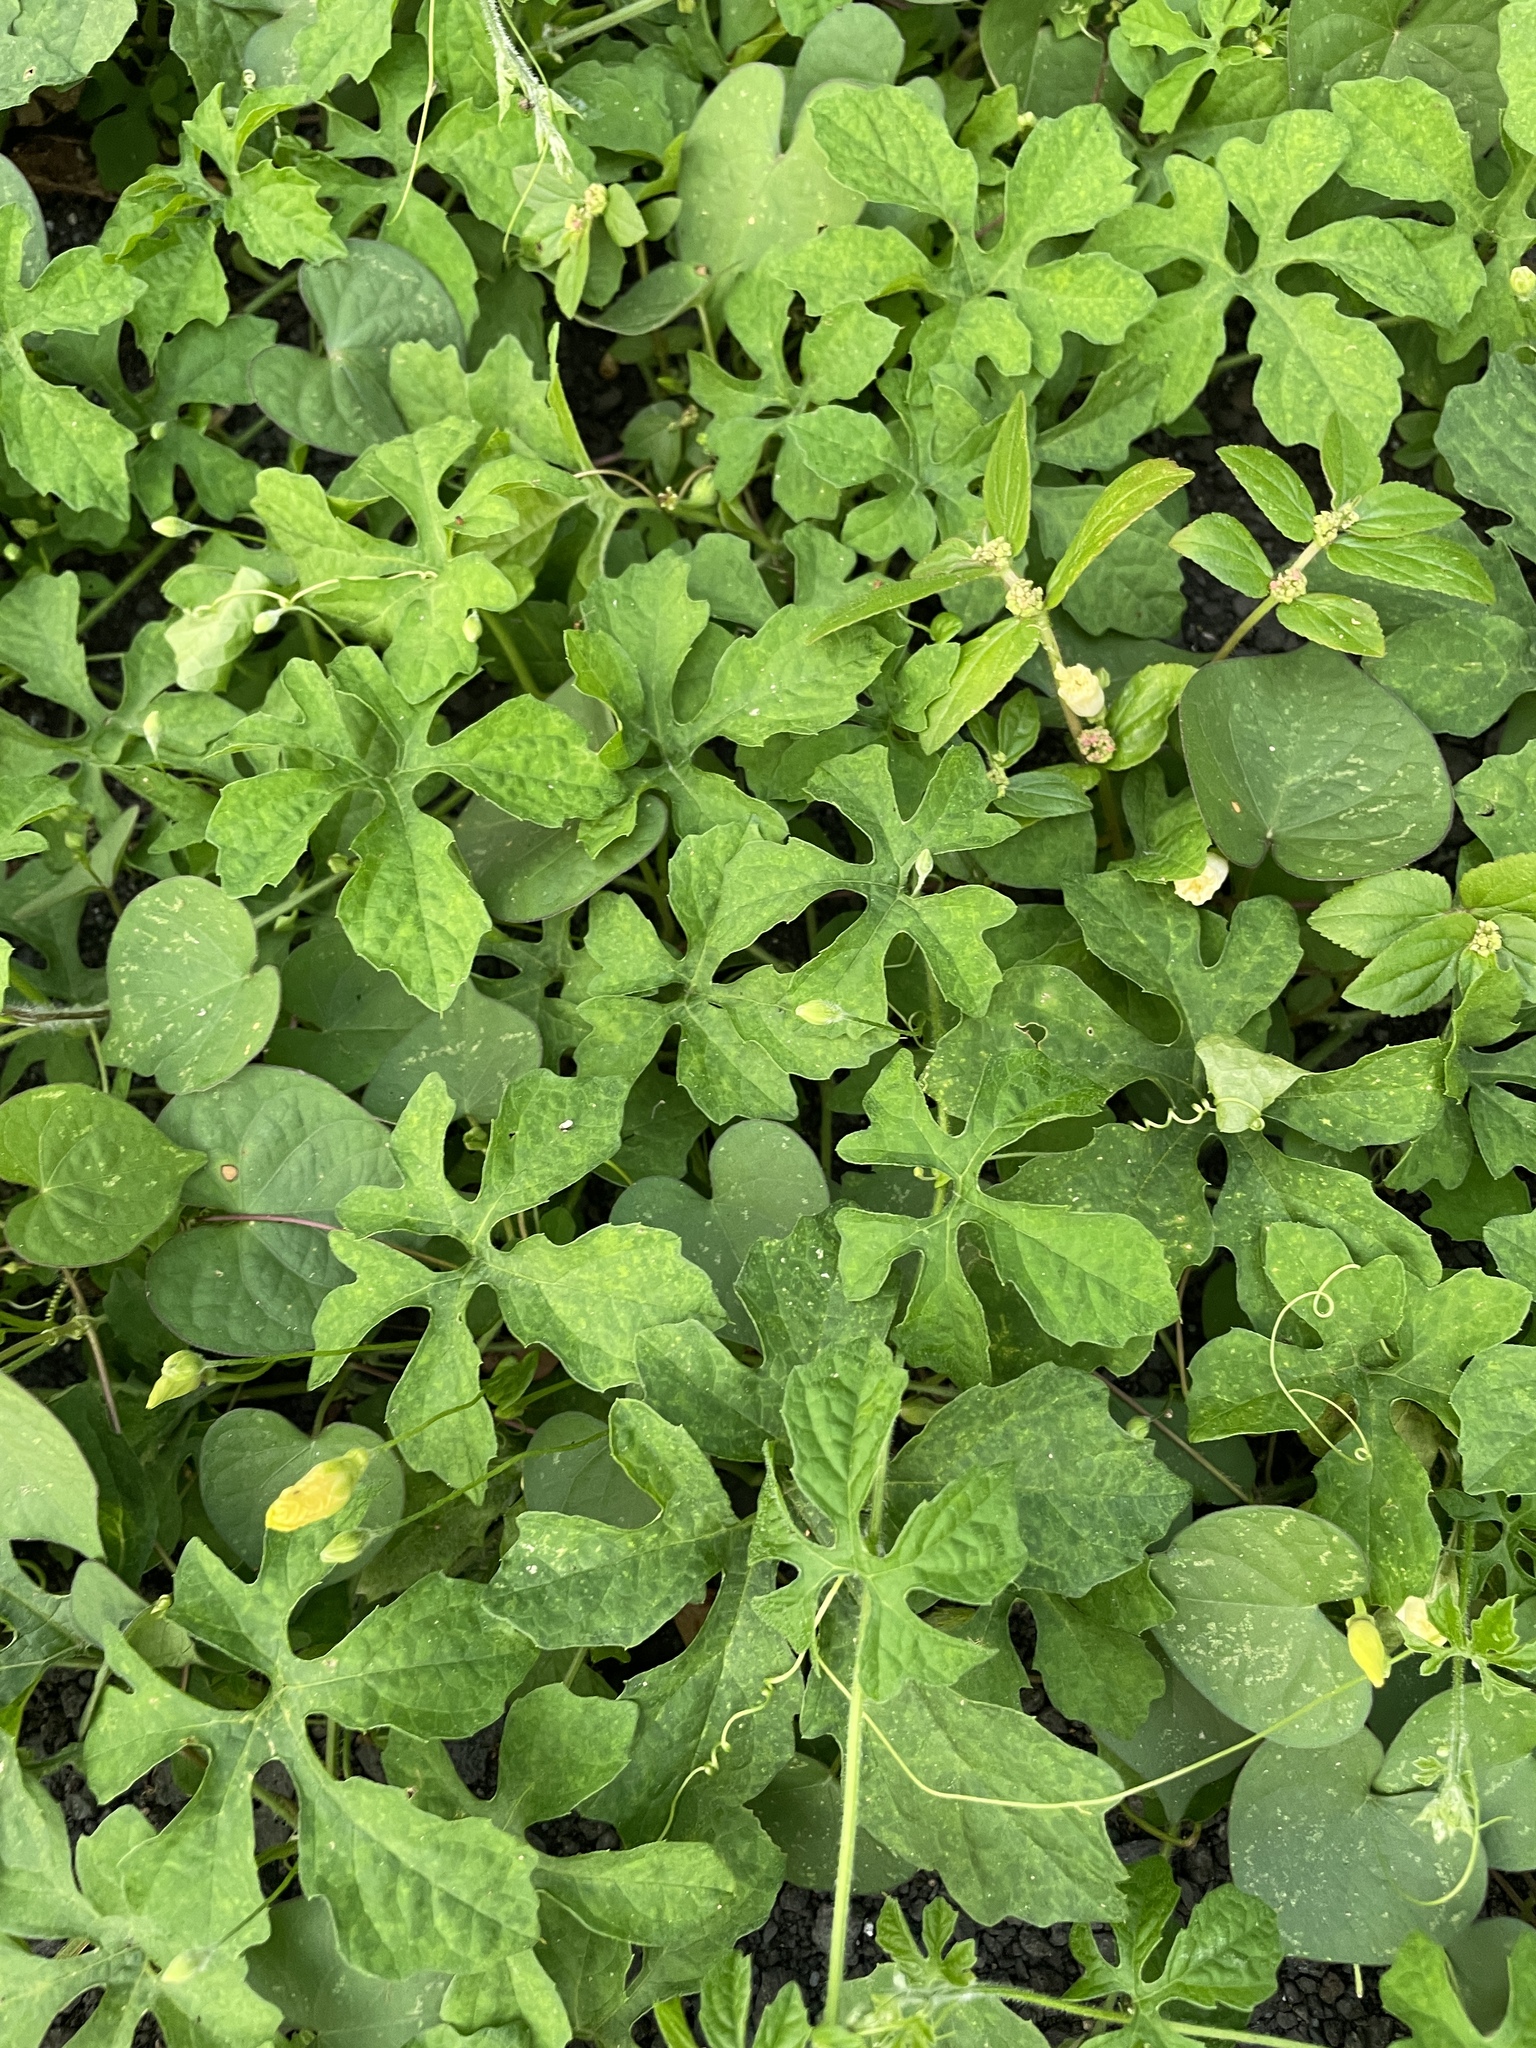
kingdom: Plantae
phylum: Tracheophyta
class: Magnoliopsida
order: Cucurbitales
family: Cucurbitaceae
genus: Momordica
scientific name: Momordica charantia
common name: Balsampear
